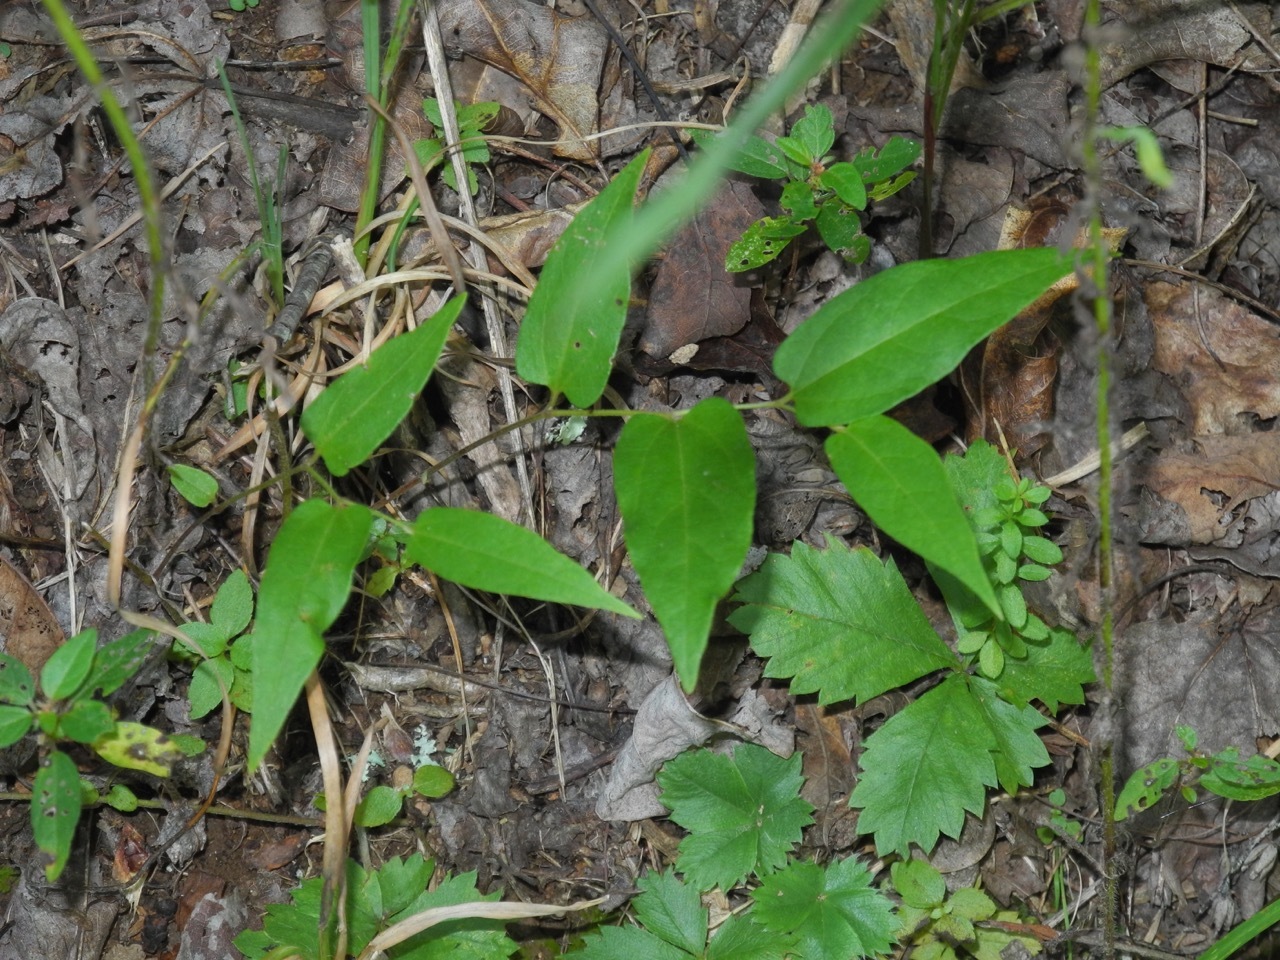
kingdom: Plantae
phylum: Tracheophyta
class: Magnoliopsida
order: Piperales
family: Aristolochiaceae
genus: Endodeca
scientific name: Endodeca serpentaria
